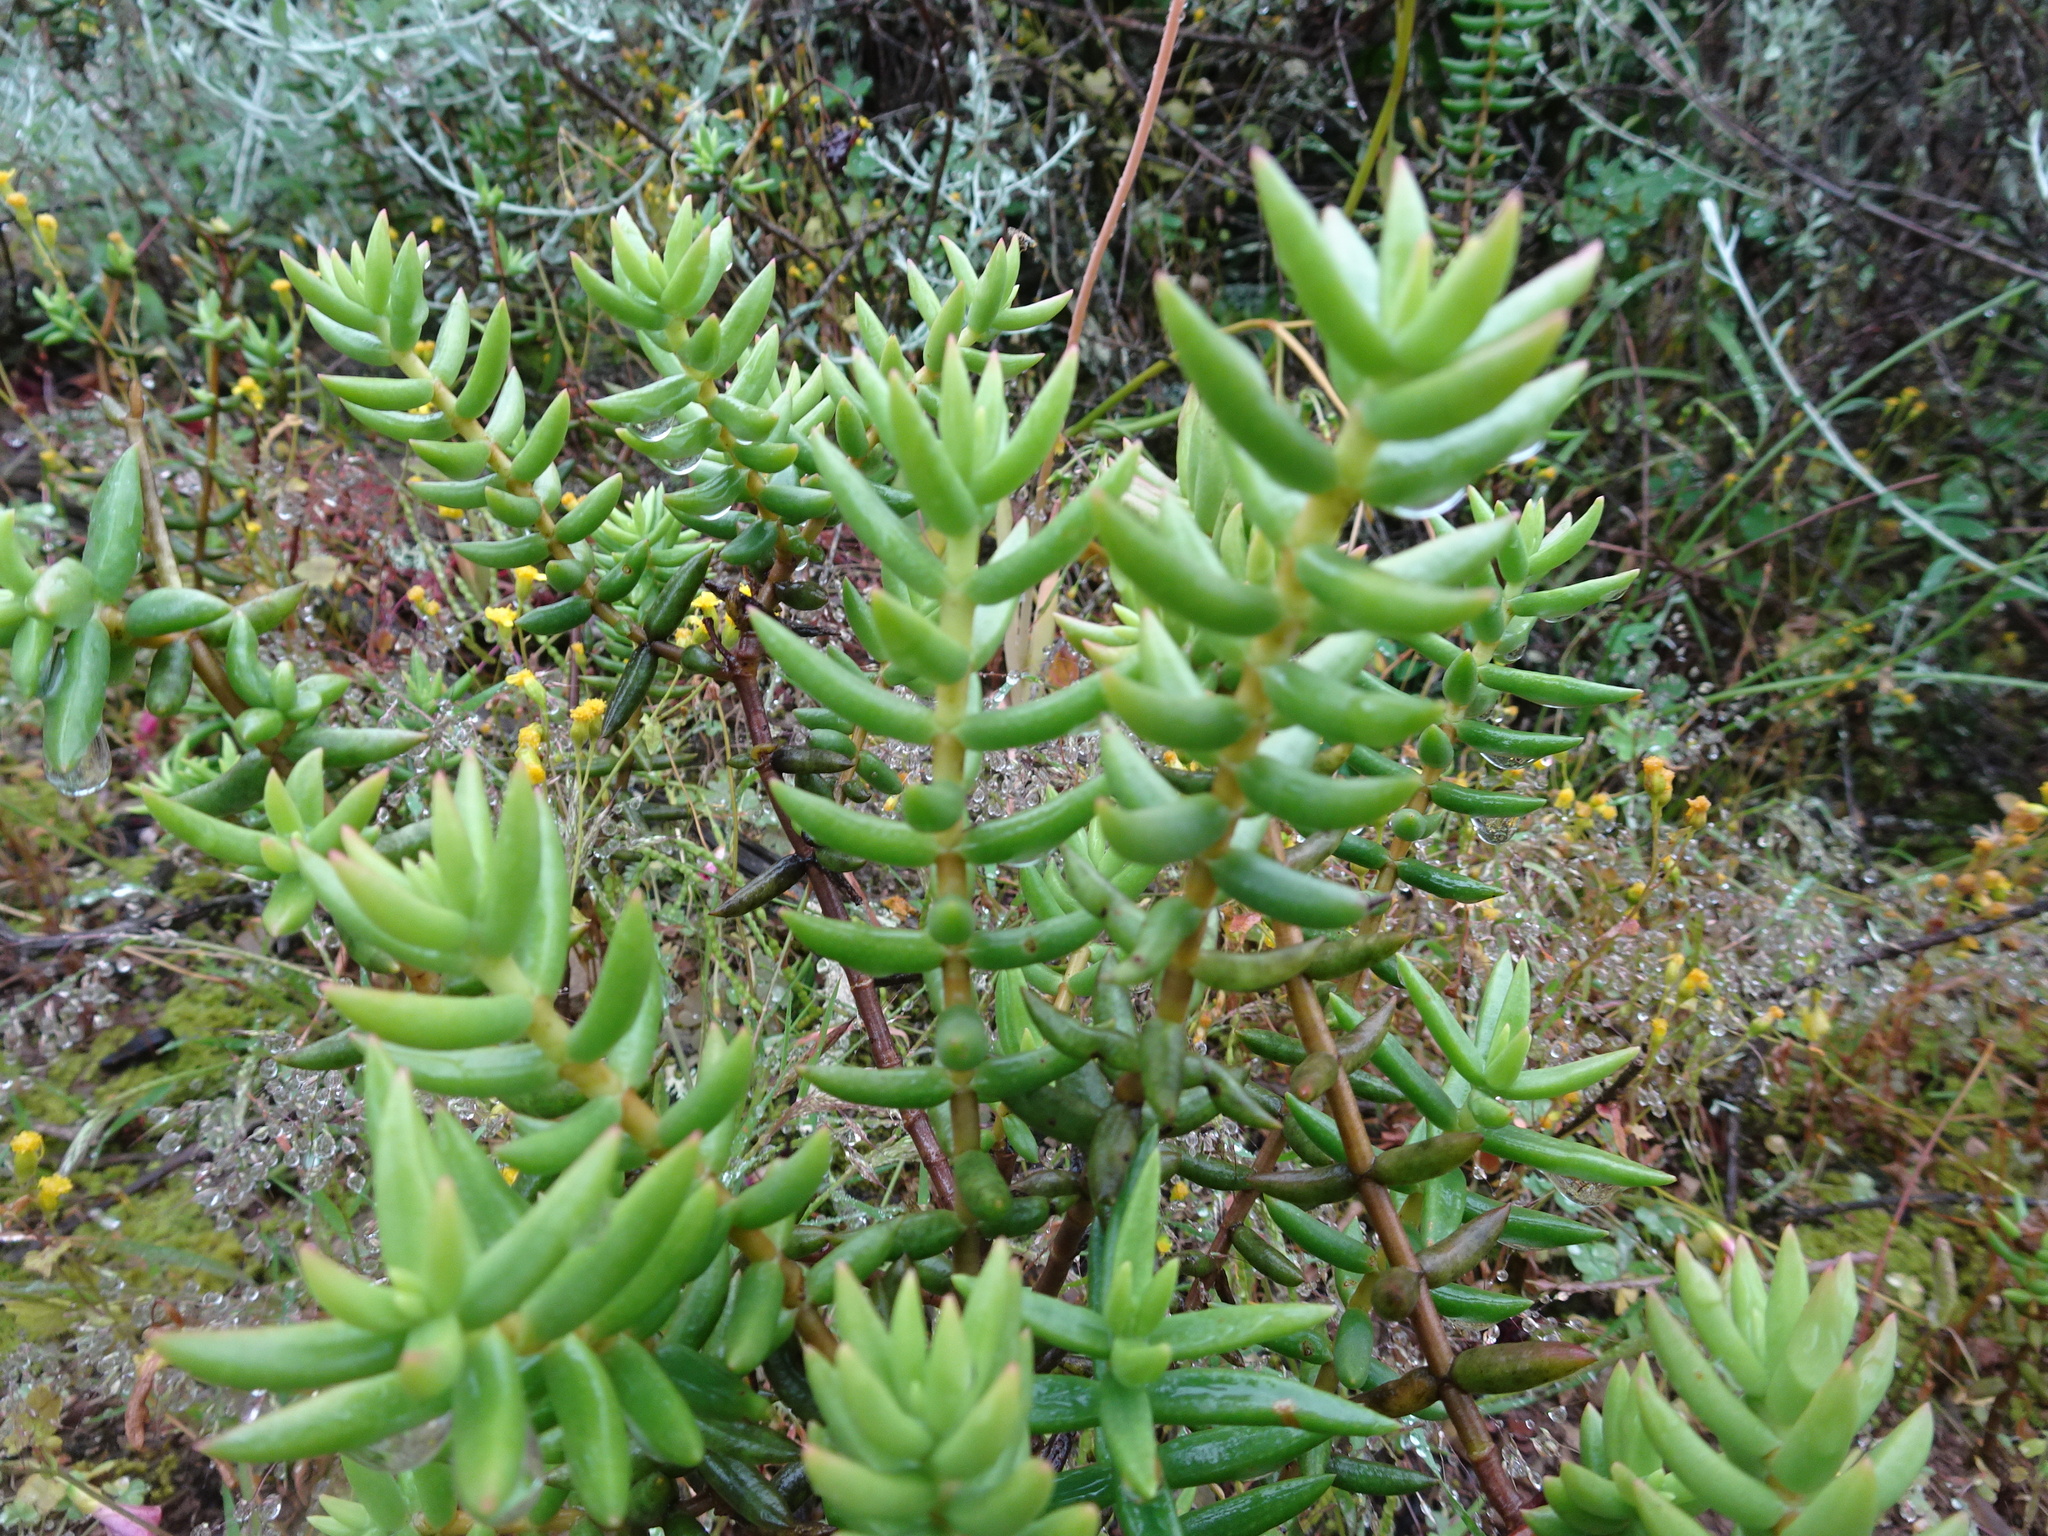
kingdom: Plantae
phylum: Tracheophyta
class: Magnoliopsida
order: Saxifragales
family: Crassulaceae
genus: Crassula
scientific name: Crassula tetragona
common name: Pygmyweed
